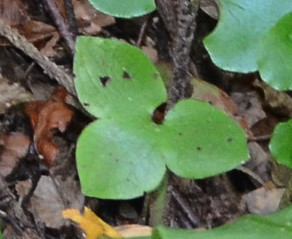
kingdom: Plantae
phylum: Tracheophyta
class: Magnoliopsida
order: Ranunculales
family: Ranunculaceae
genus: Hepatica
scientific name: Hepatica nobilis
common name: Liverleaf
